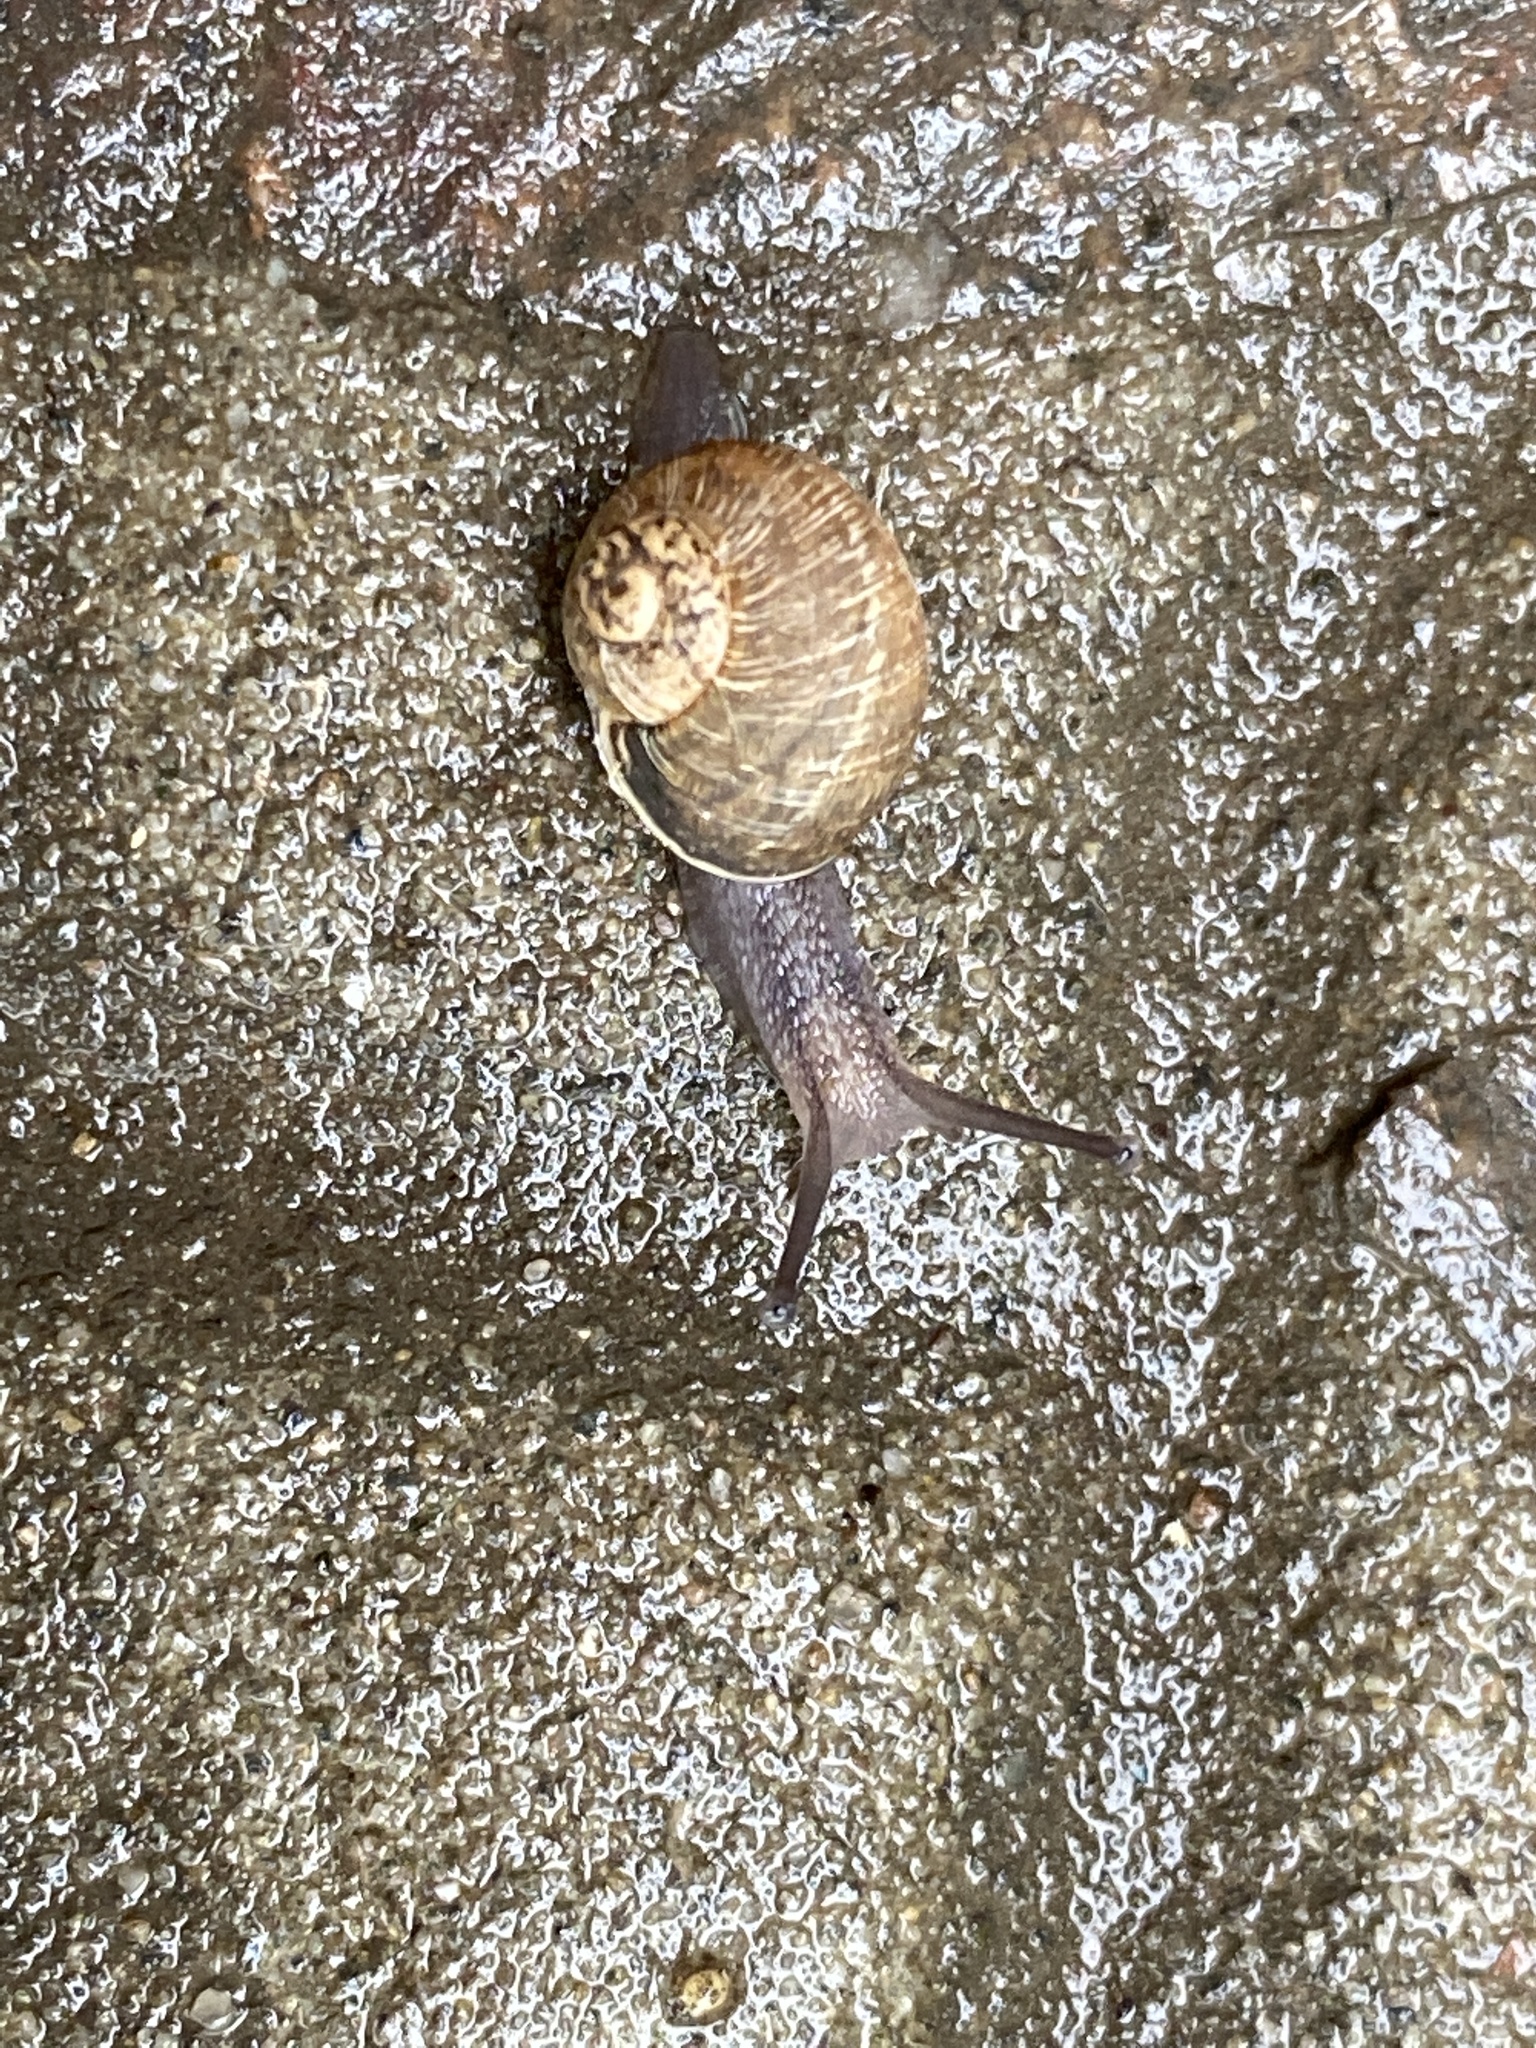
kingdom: Animalia
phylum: Mollusca
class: Gastropoda
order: Stylommatophora
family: Helicidae
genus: Cornu
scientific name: Cornu aspersum
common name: Brown garden snail
